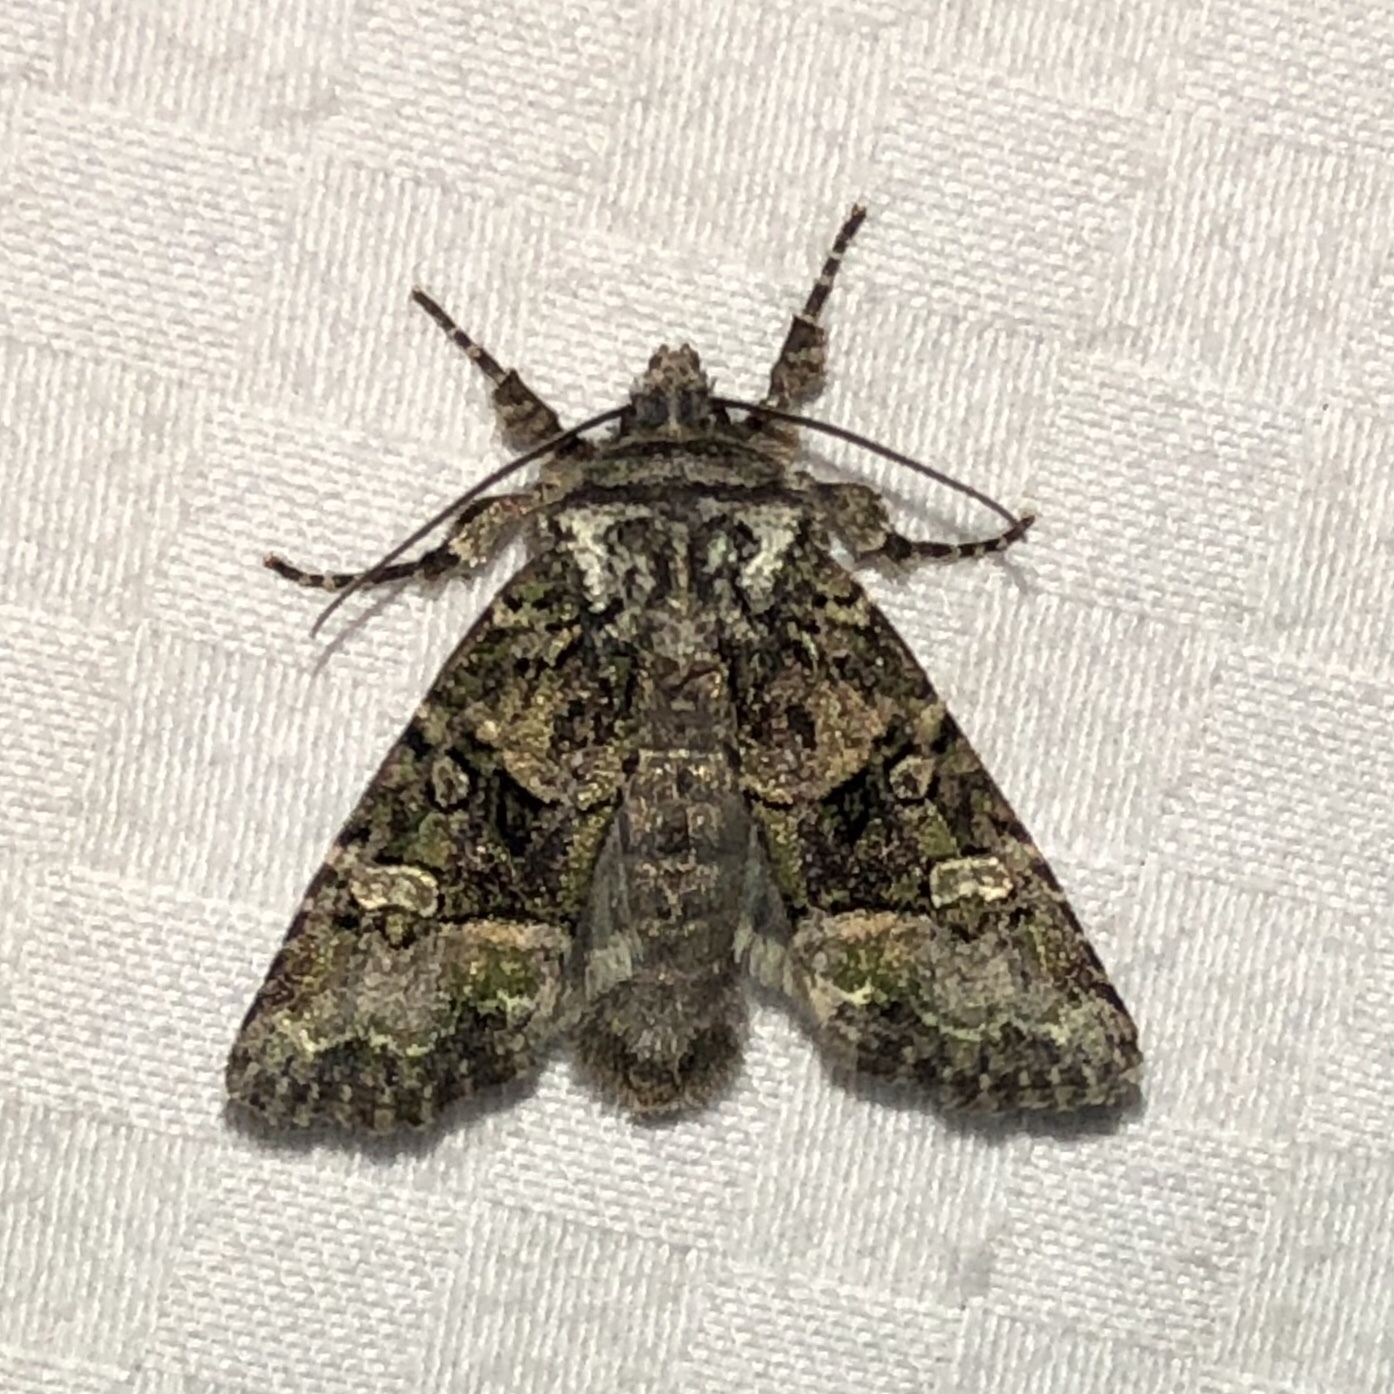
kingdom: Animalia
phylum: Arthropoda
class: Insecta
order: Lepidoptera
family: Noctuidae
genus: Lacinipolia
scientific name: Lacinipolia olivacea
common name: Olive arches moth
